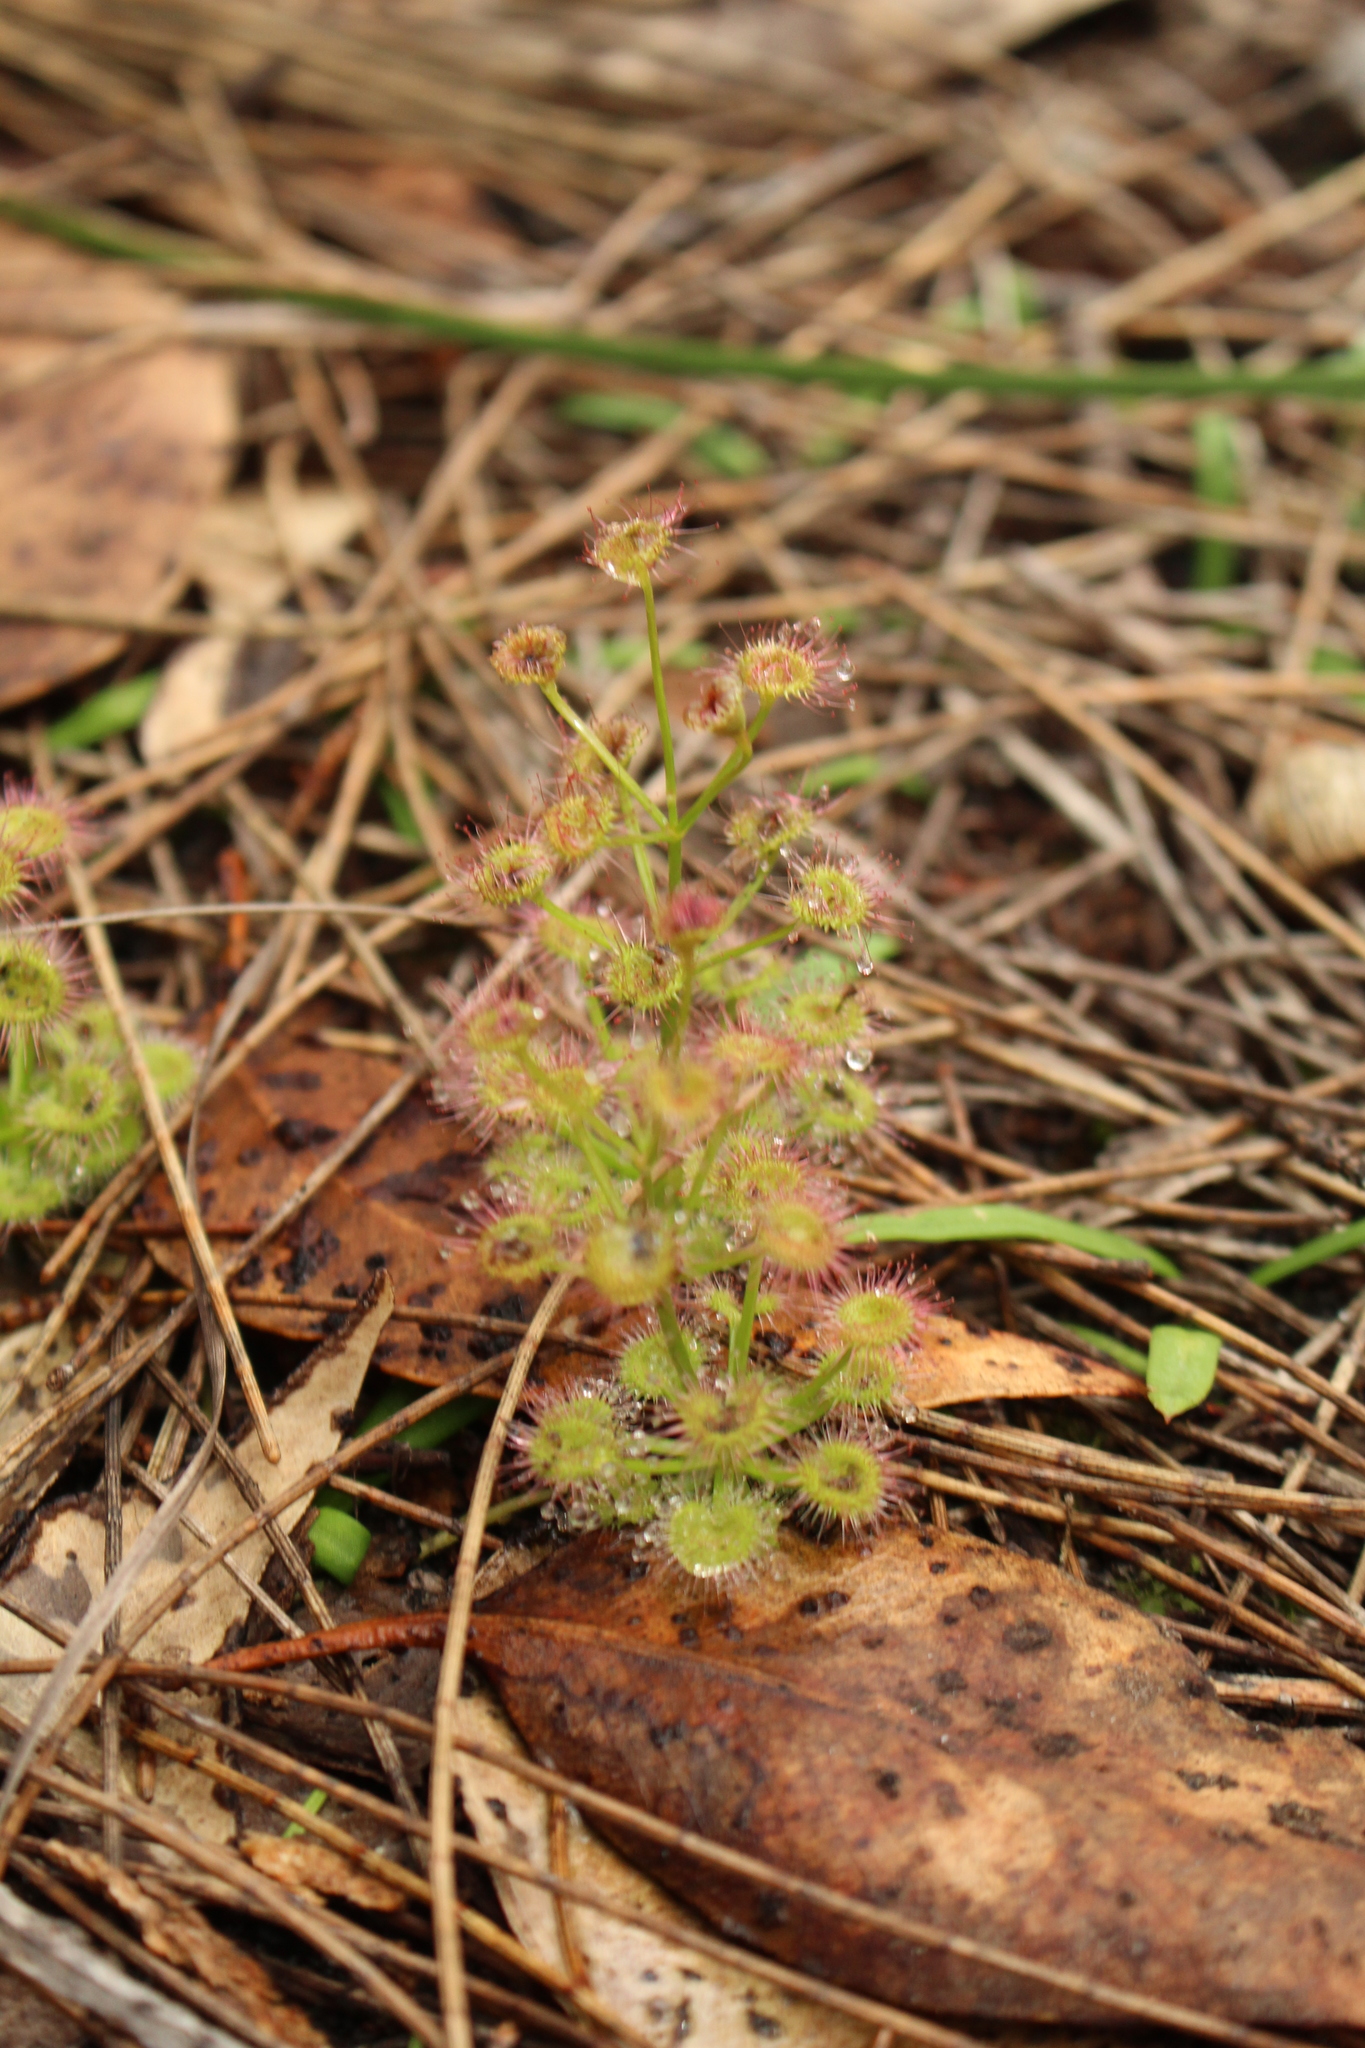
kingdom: Plantae
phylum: Tracheophyta
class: Magnoliopsida
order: Caryophyllales
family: Droseraceae
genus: Drosera
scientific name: Drosera stolonifera
